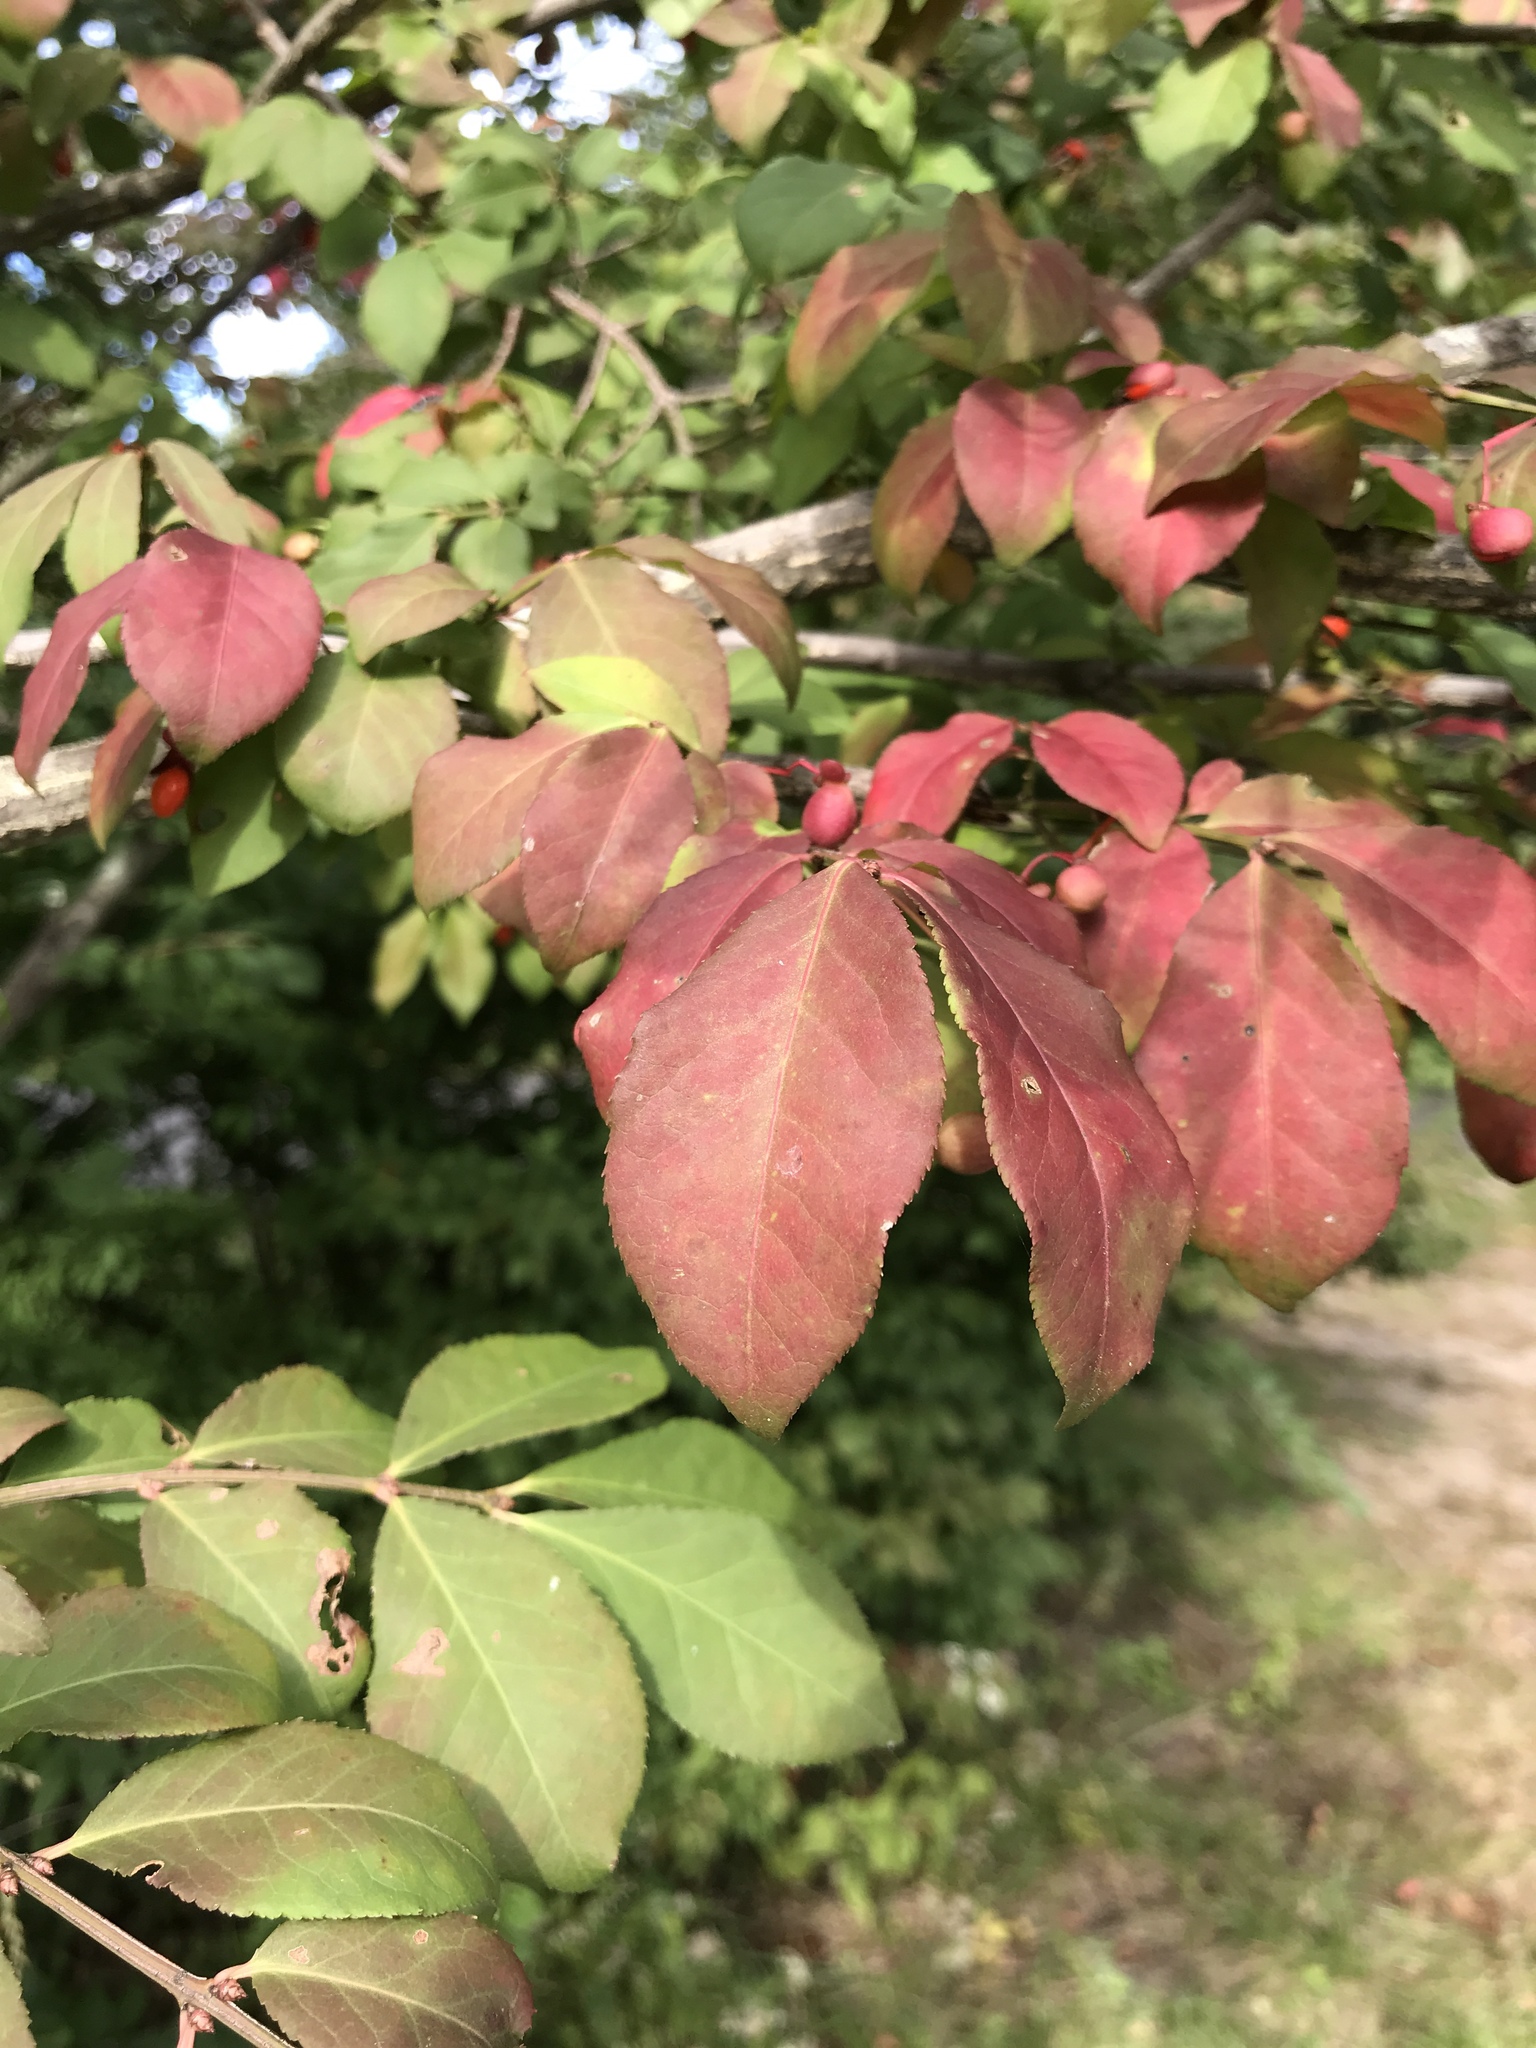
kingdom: Plantae
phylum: Tracheophyta
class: Magnoliopsida
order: Celastrales
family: Celastraceae
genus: Euonymus
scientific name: Euonymus alatus
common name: Winged euonymus
